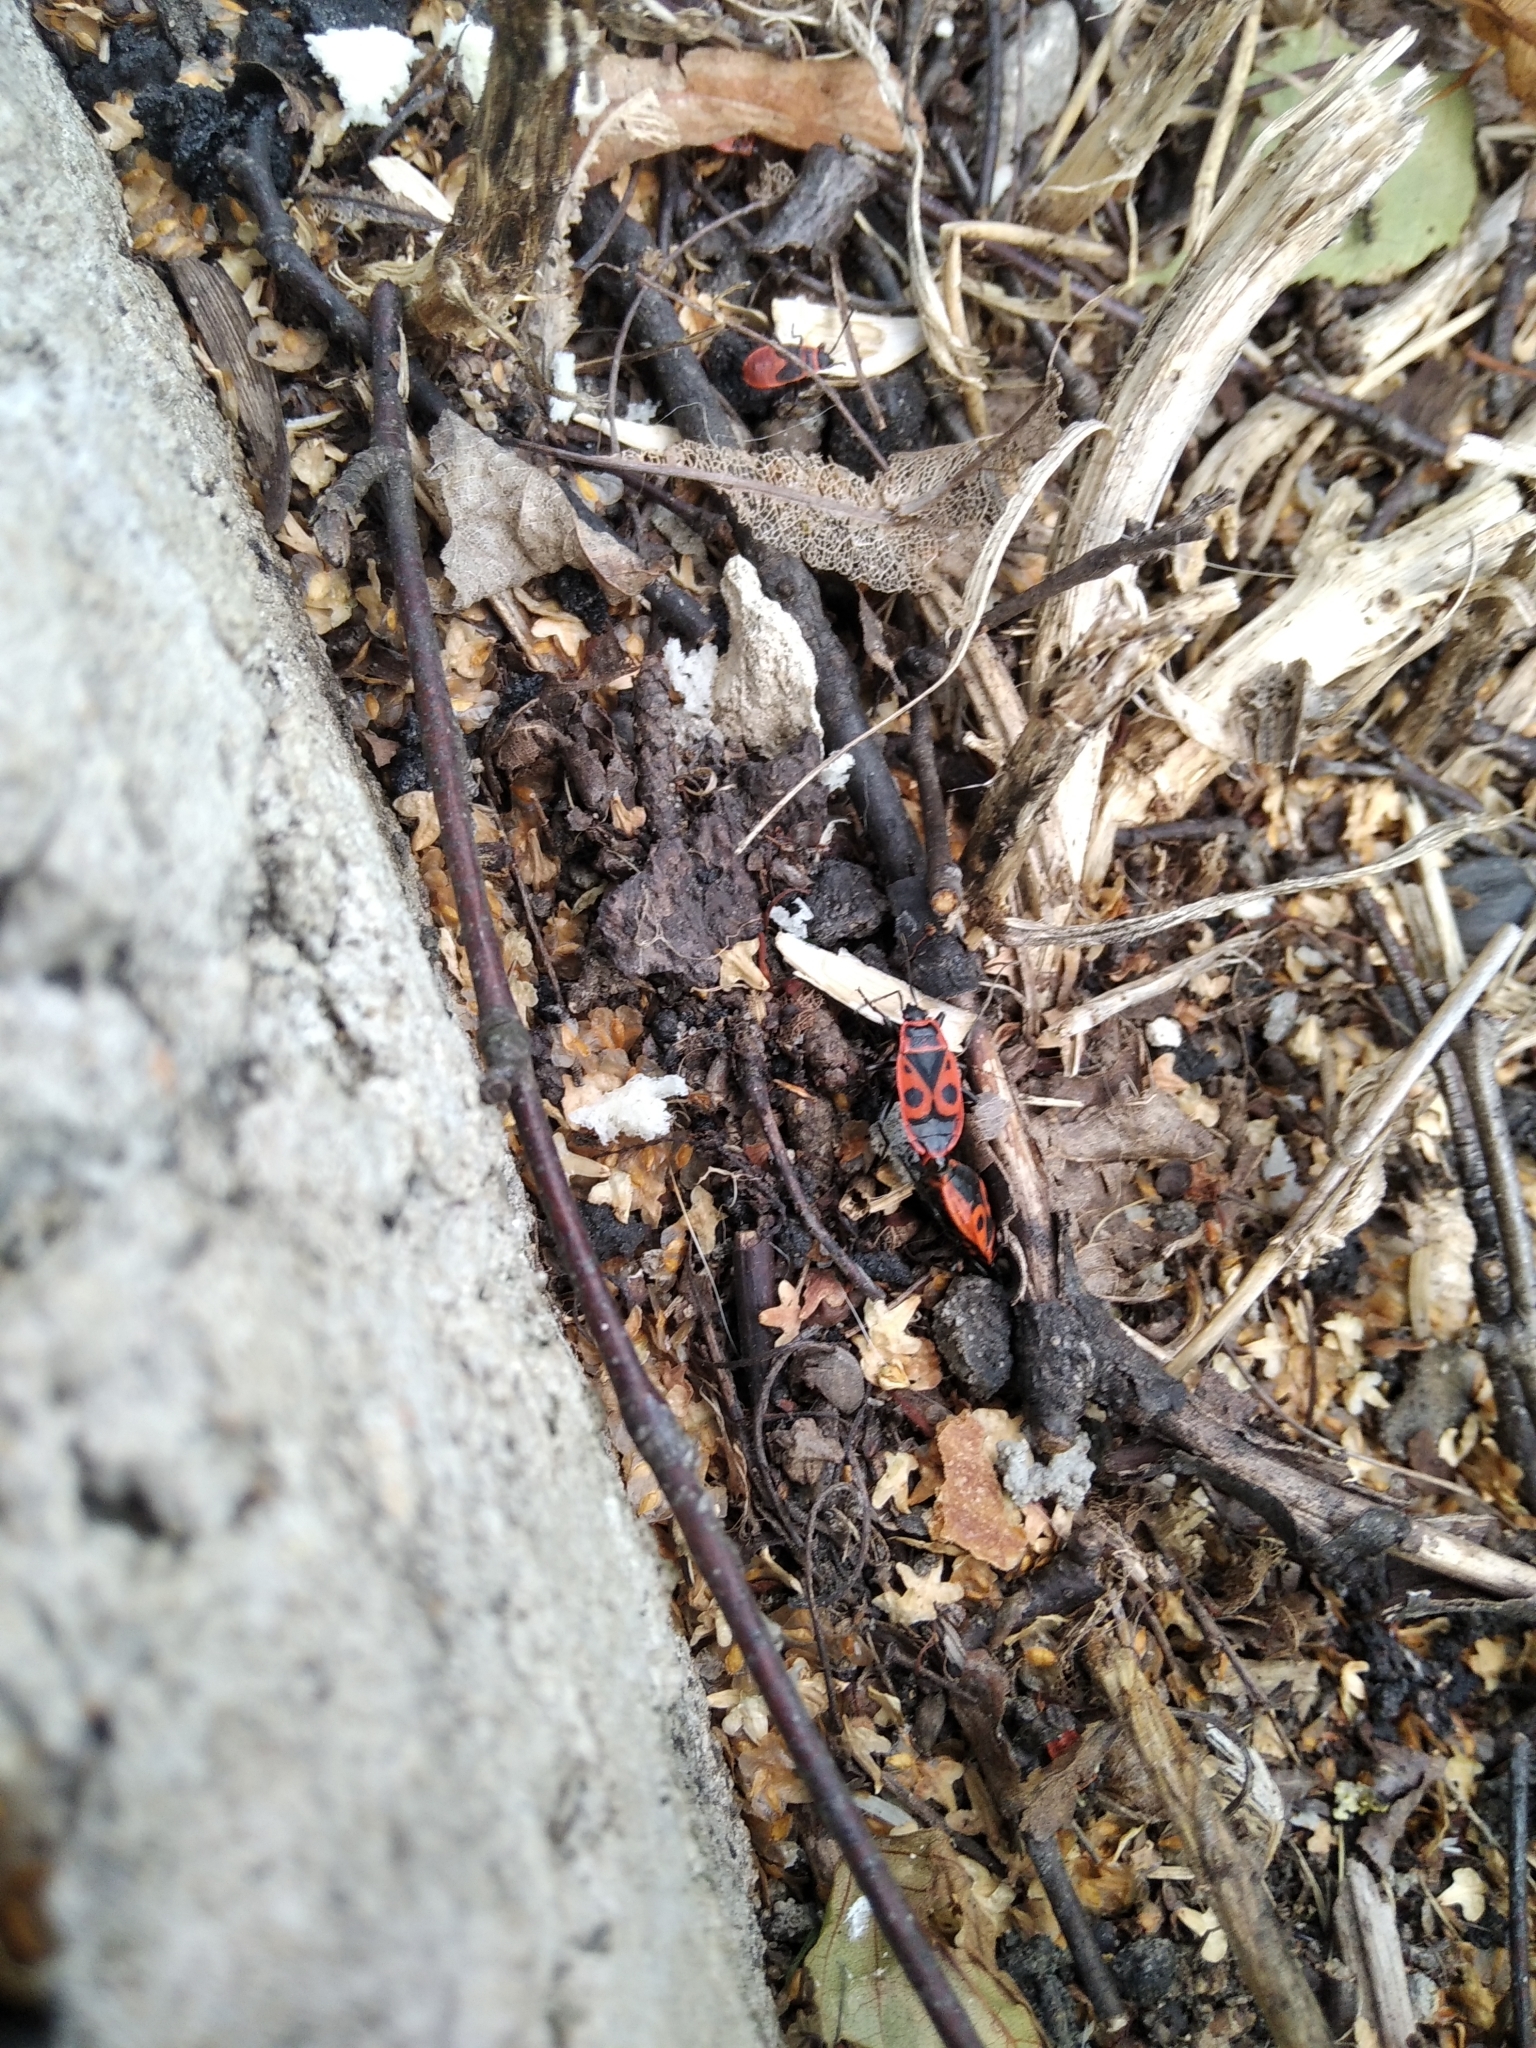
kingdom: Animalia
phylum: Arthropoda
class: Insecta
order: Hemiptera
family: Pyrrhocoridae
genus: Pyrrhocoris
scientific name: Pyrrhocoris apterus
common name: Firebug
